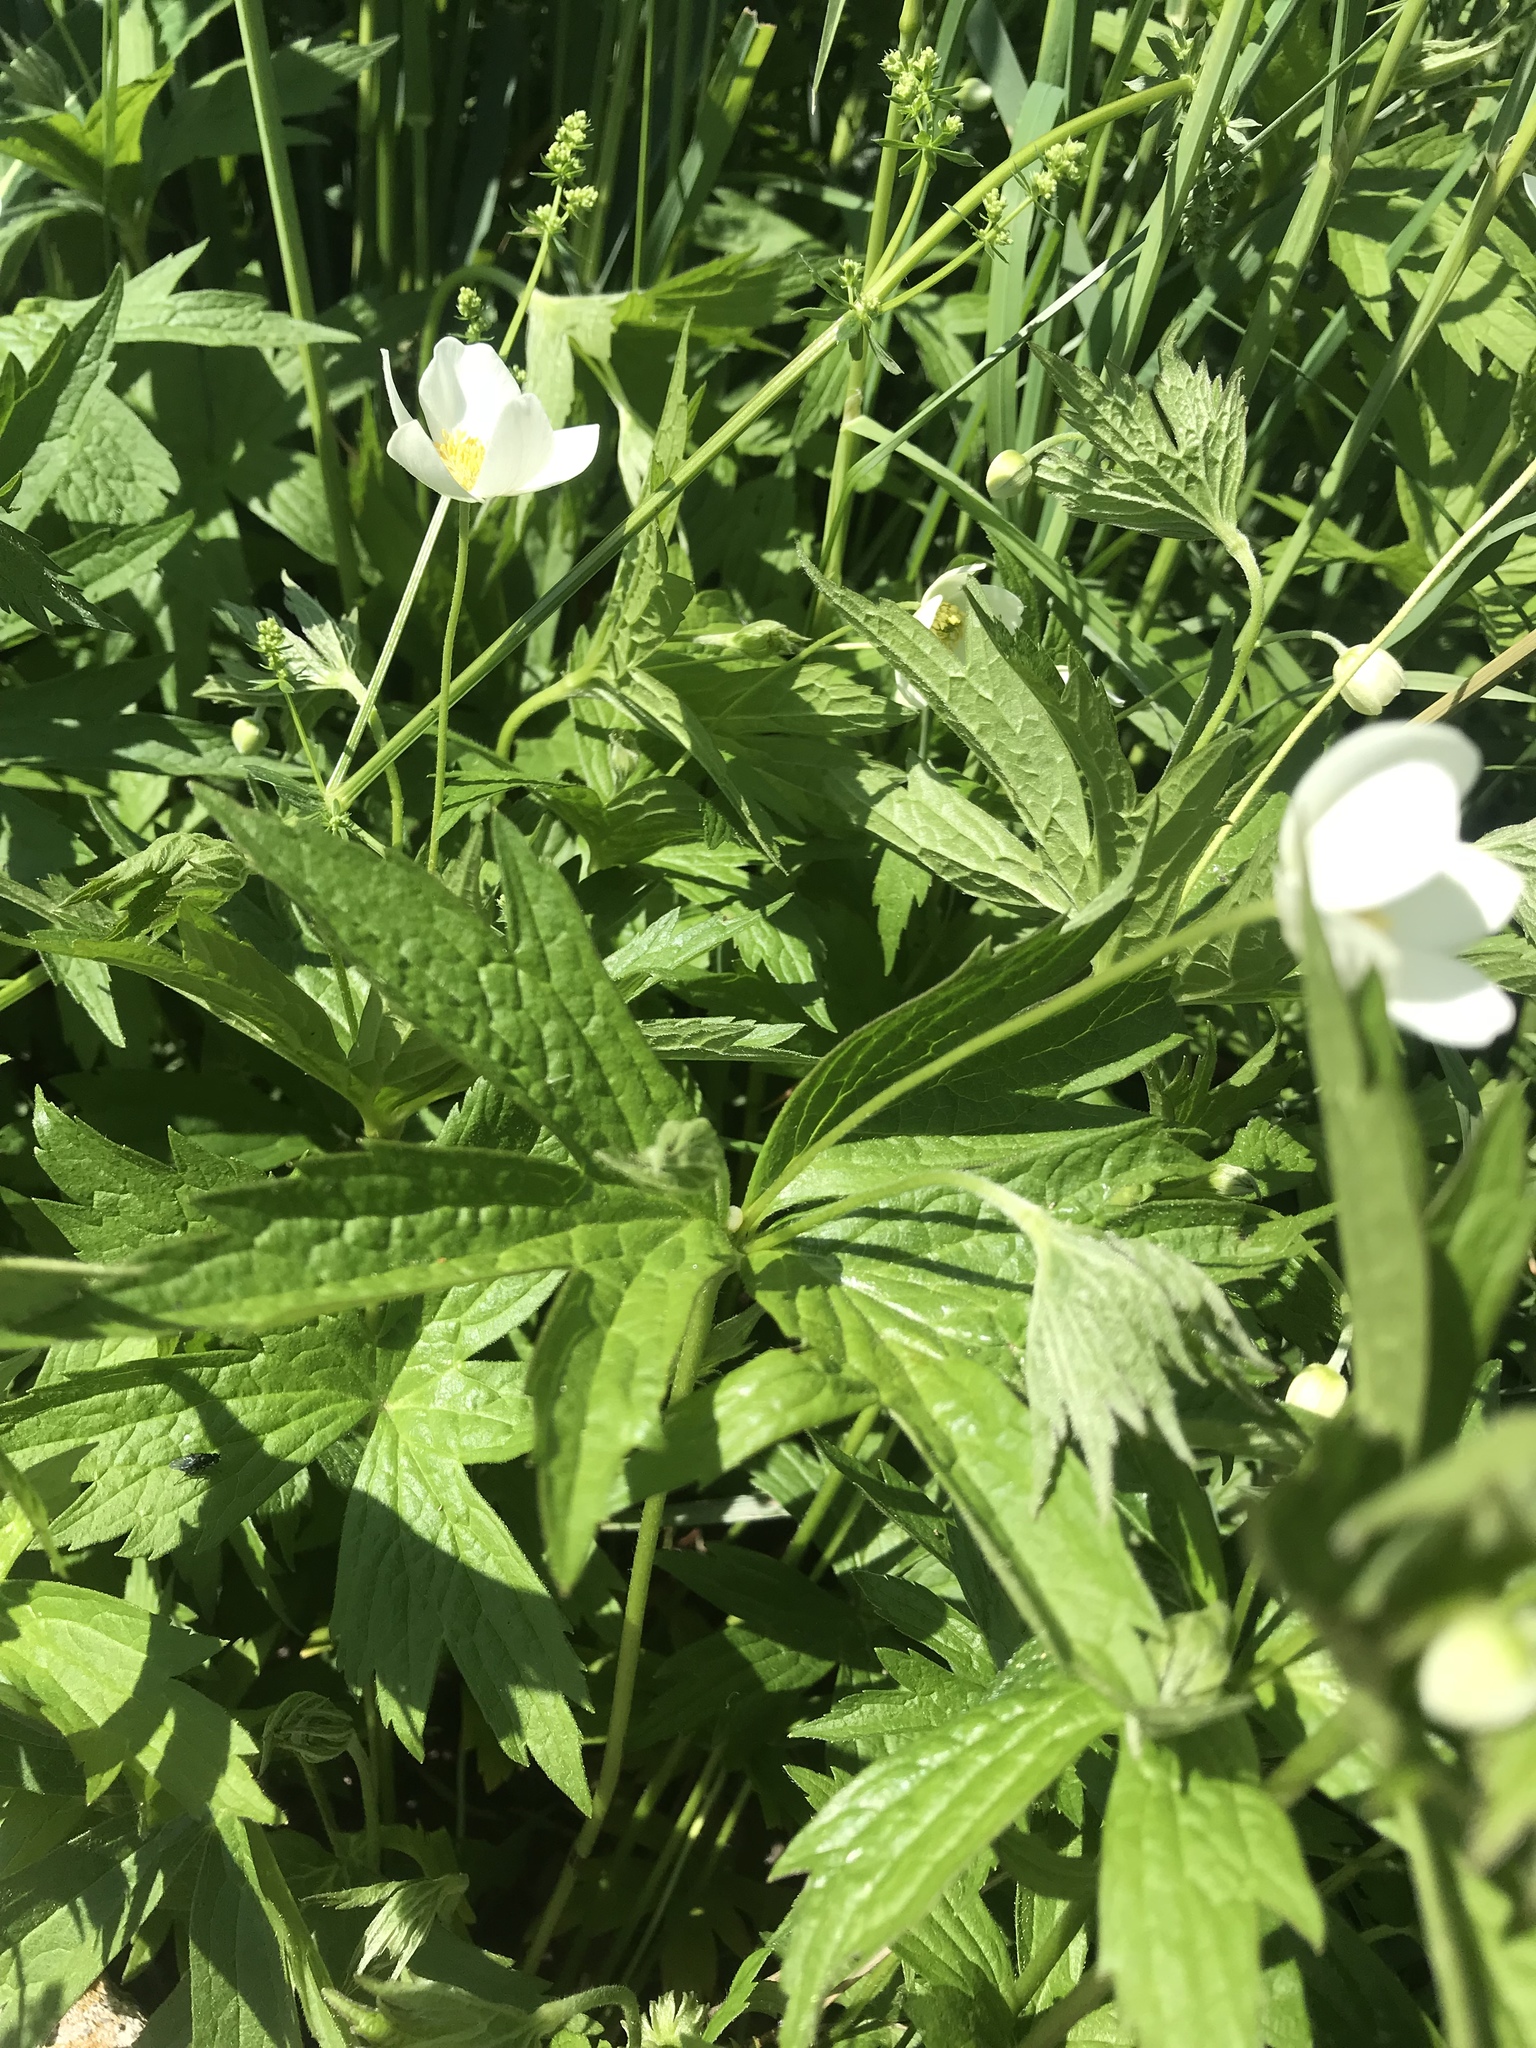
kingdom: Plantae
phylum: Tracheophyta
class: Magnoliopsida
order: Ranunculales
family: Ranunculaceae
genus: Anemonastrum
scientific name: Anemonastrum canadense
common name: Canada anemone
